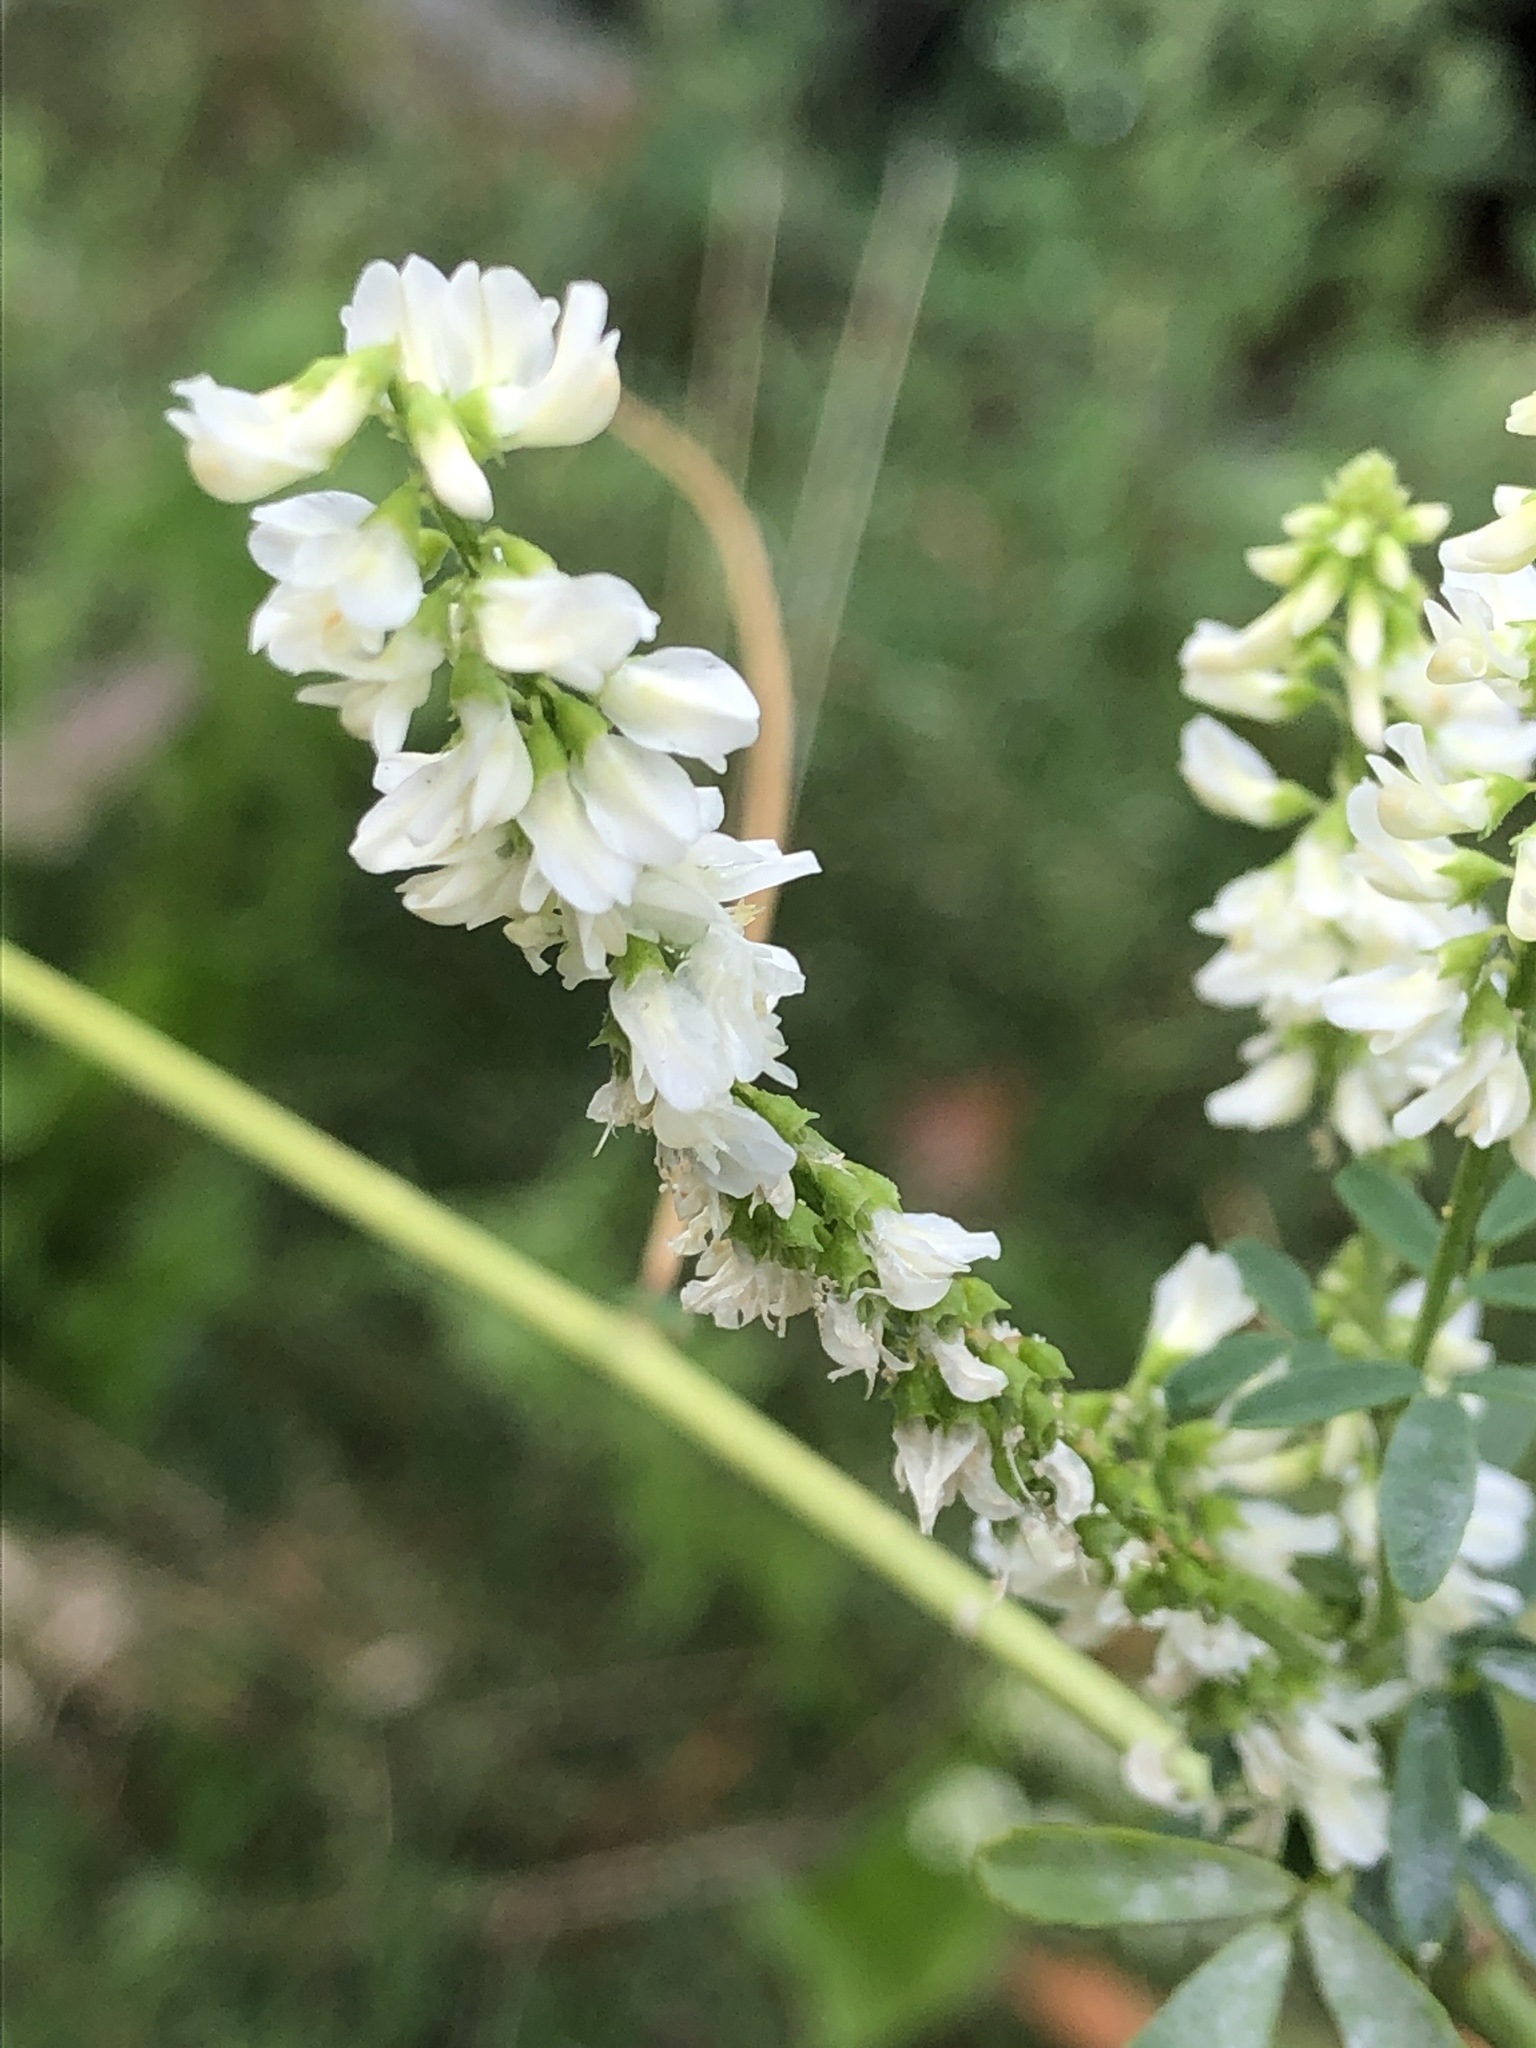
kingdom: Plantae
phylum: Tracheophyta
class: Magnoliopsida
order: Fabales
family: Fabaceae
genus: Melilotus
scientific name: Melilotus albus
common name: White melilot
